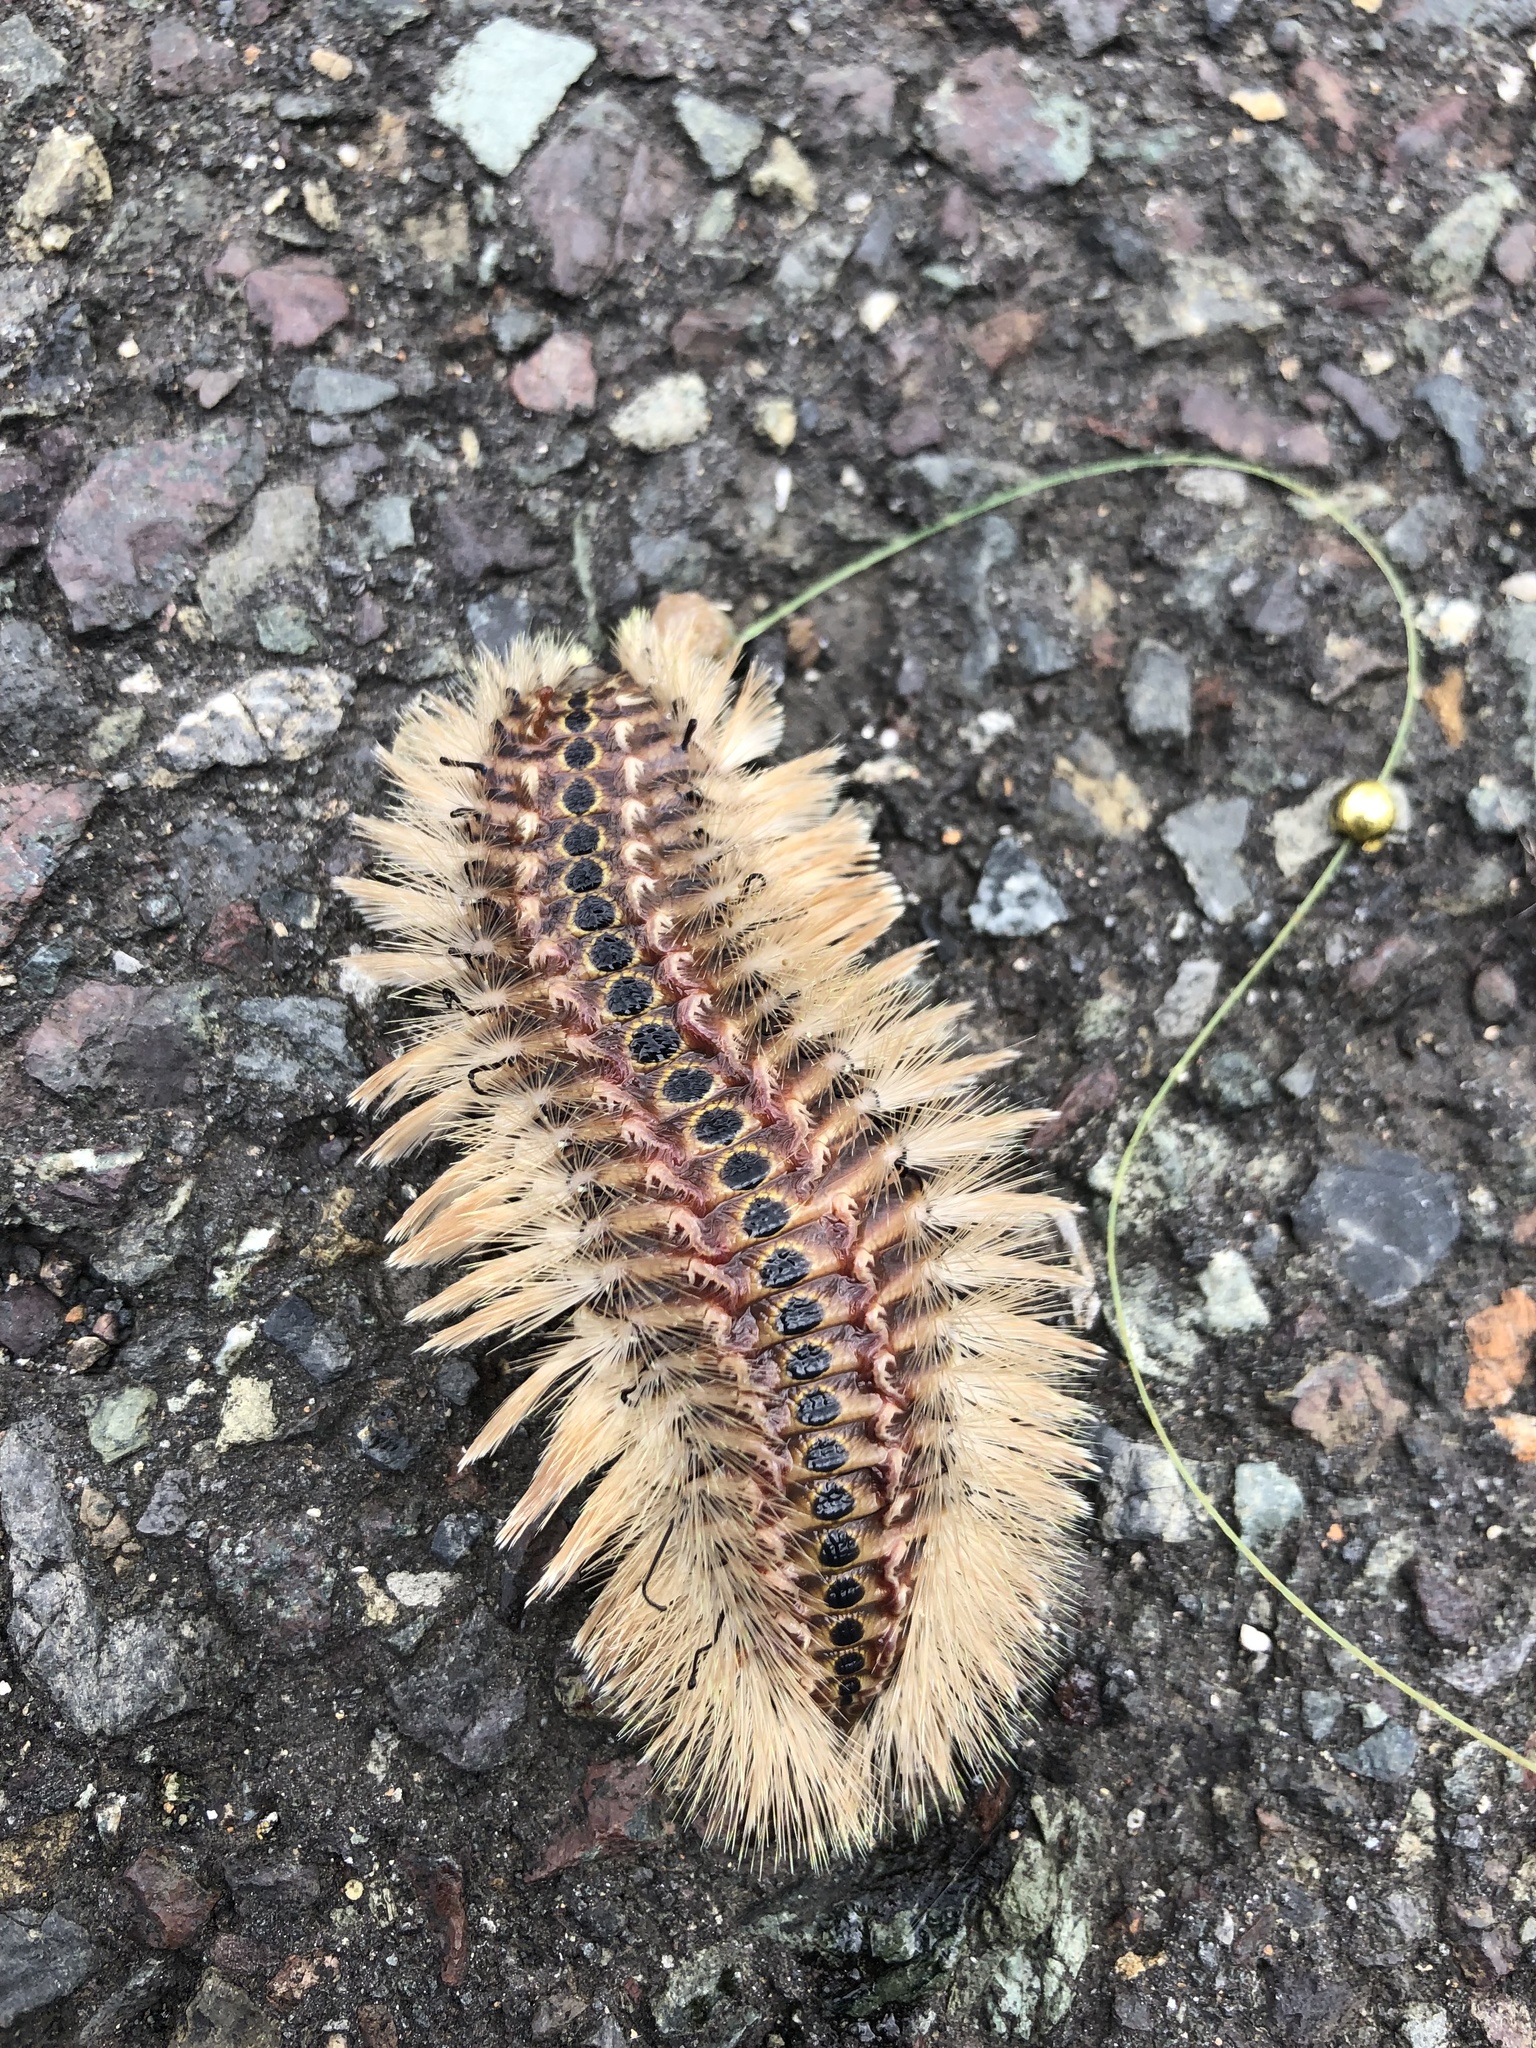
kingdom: Animalia
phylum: Annelida
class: Polychaeta
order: Amphinomida
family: Amphinomidae
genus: Chloeia
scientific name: Chloeia flava
